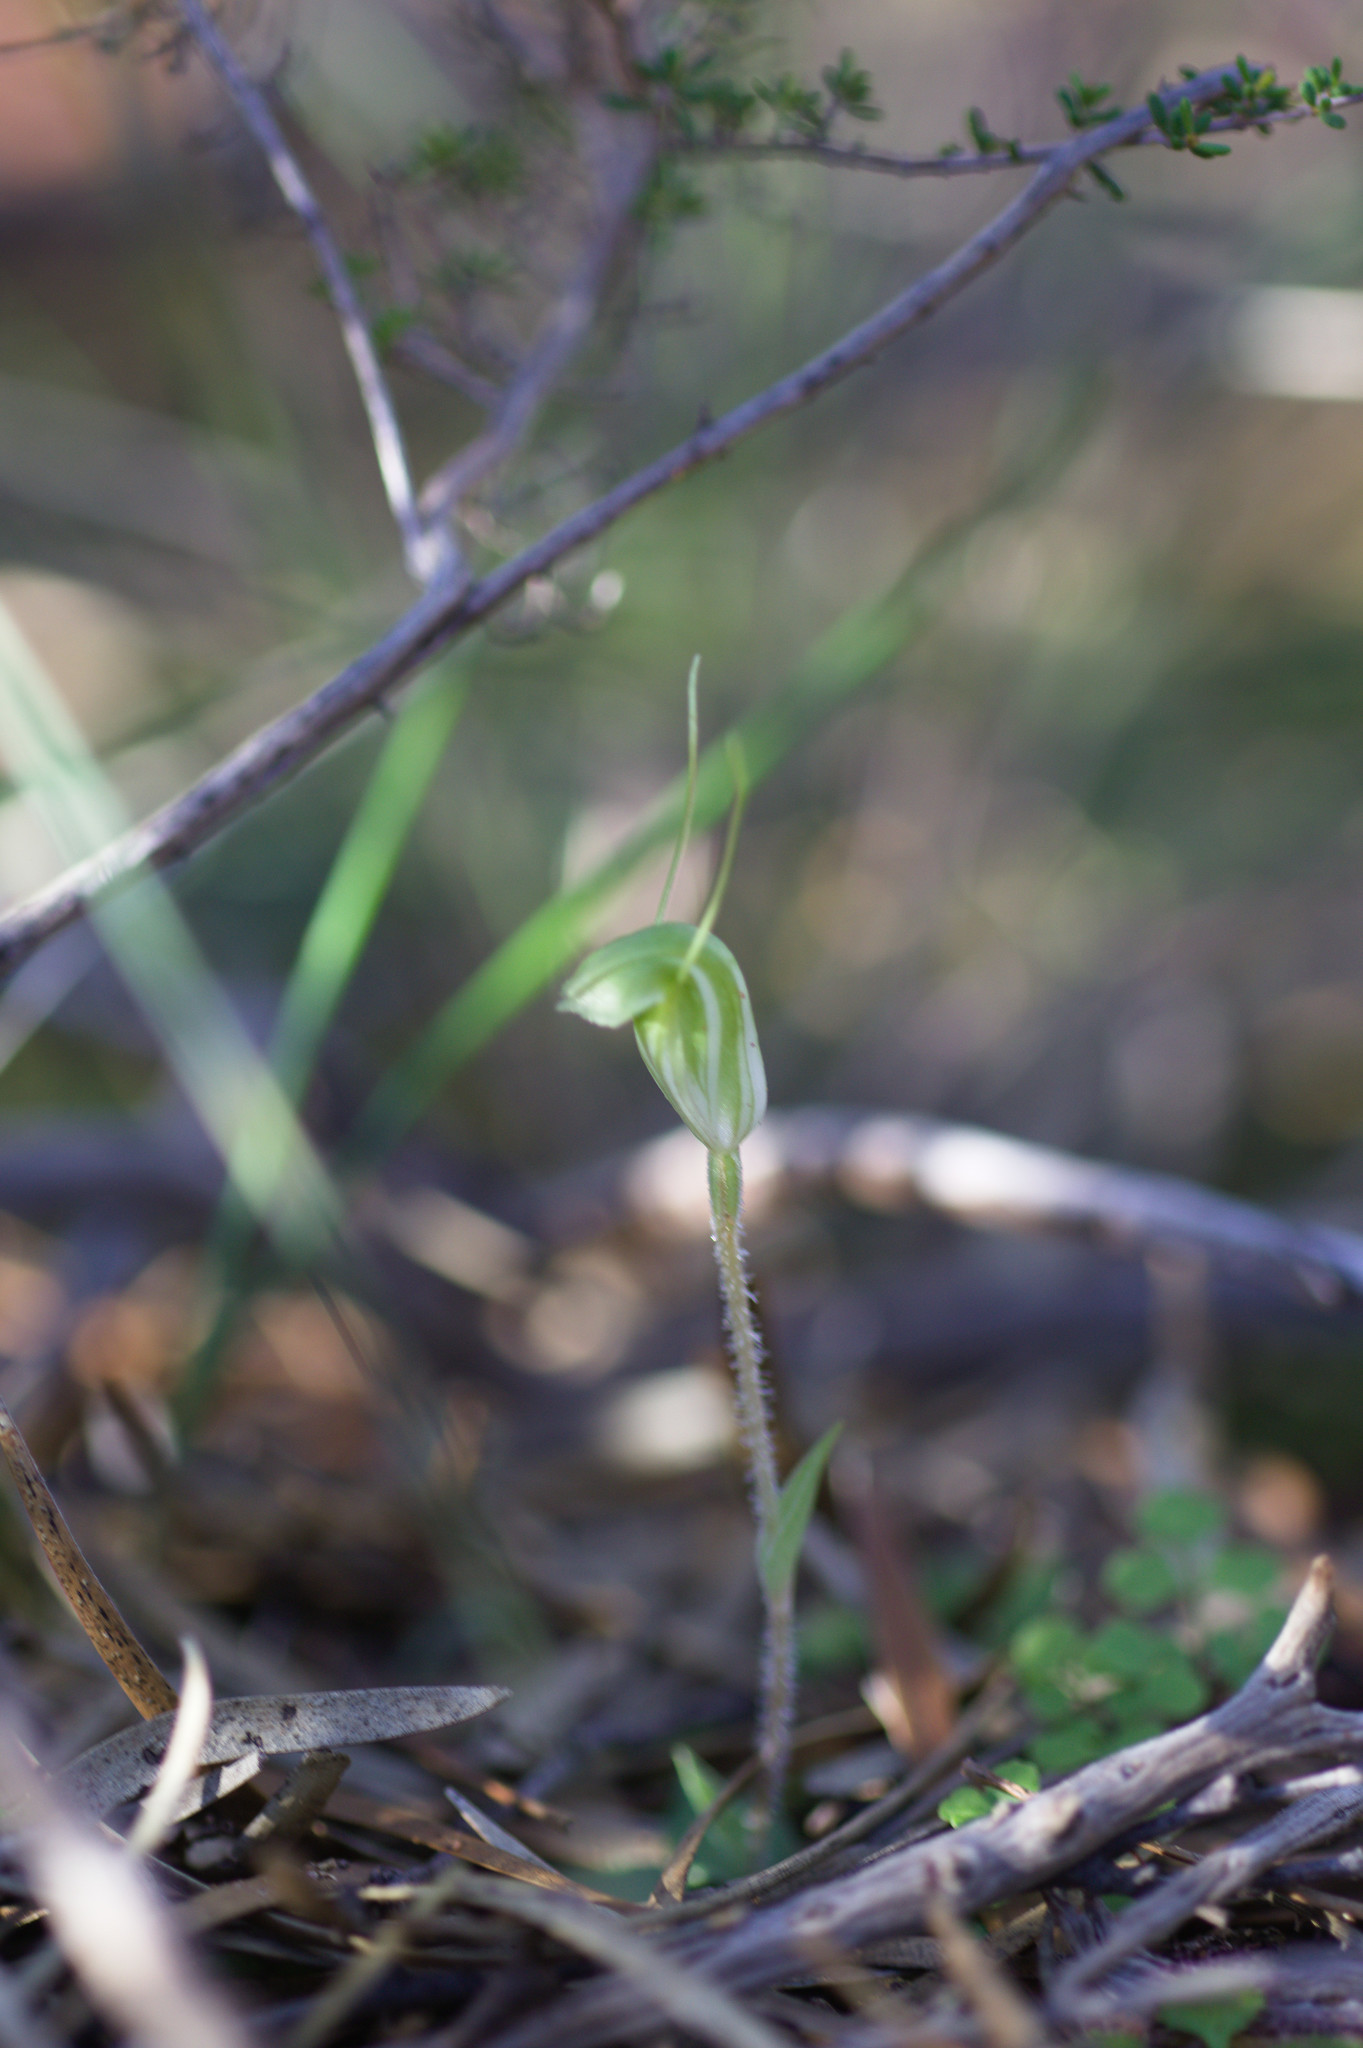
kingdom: Plantae
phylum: Tracheophyta
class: Liliopsida
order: Asparagales
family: Orchidaceae
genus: Pterostylis
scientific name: Pterostylis setulosa
